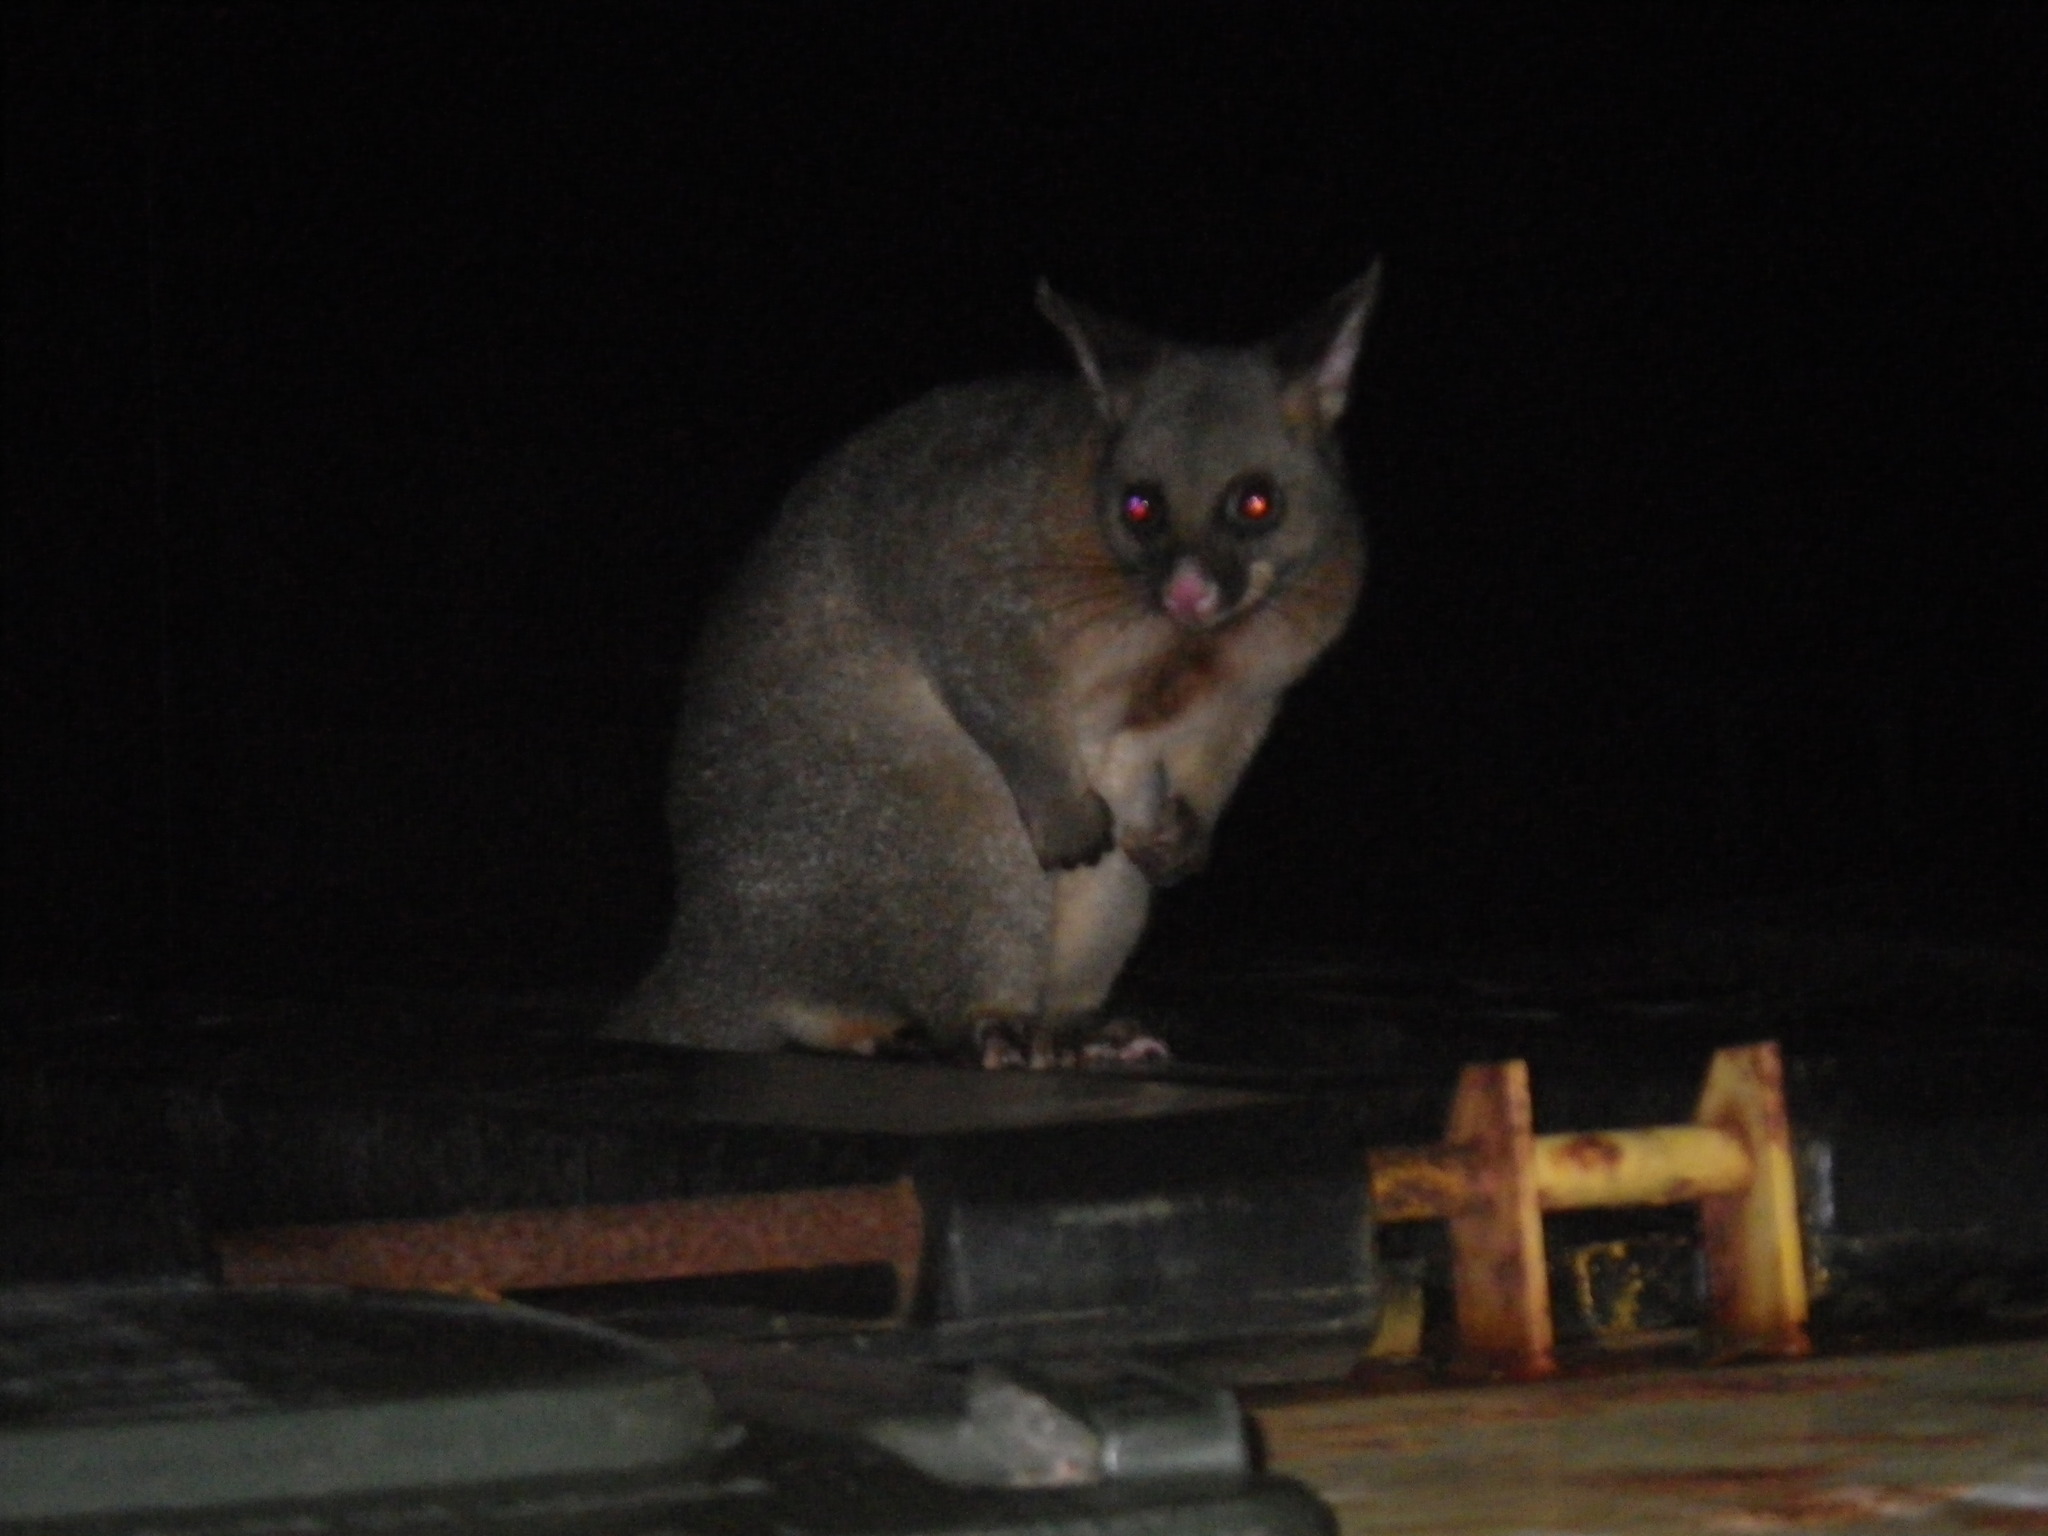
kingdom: Animalia
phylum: Chordata
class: Mammalia
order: Diprotodontia
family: Phalangeridae
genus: Trichosurus
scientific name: Trichosurus vulpecula
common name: Common brushtail
